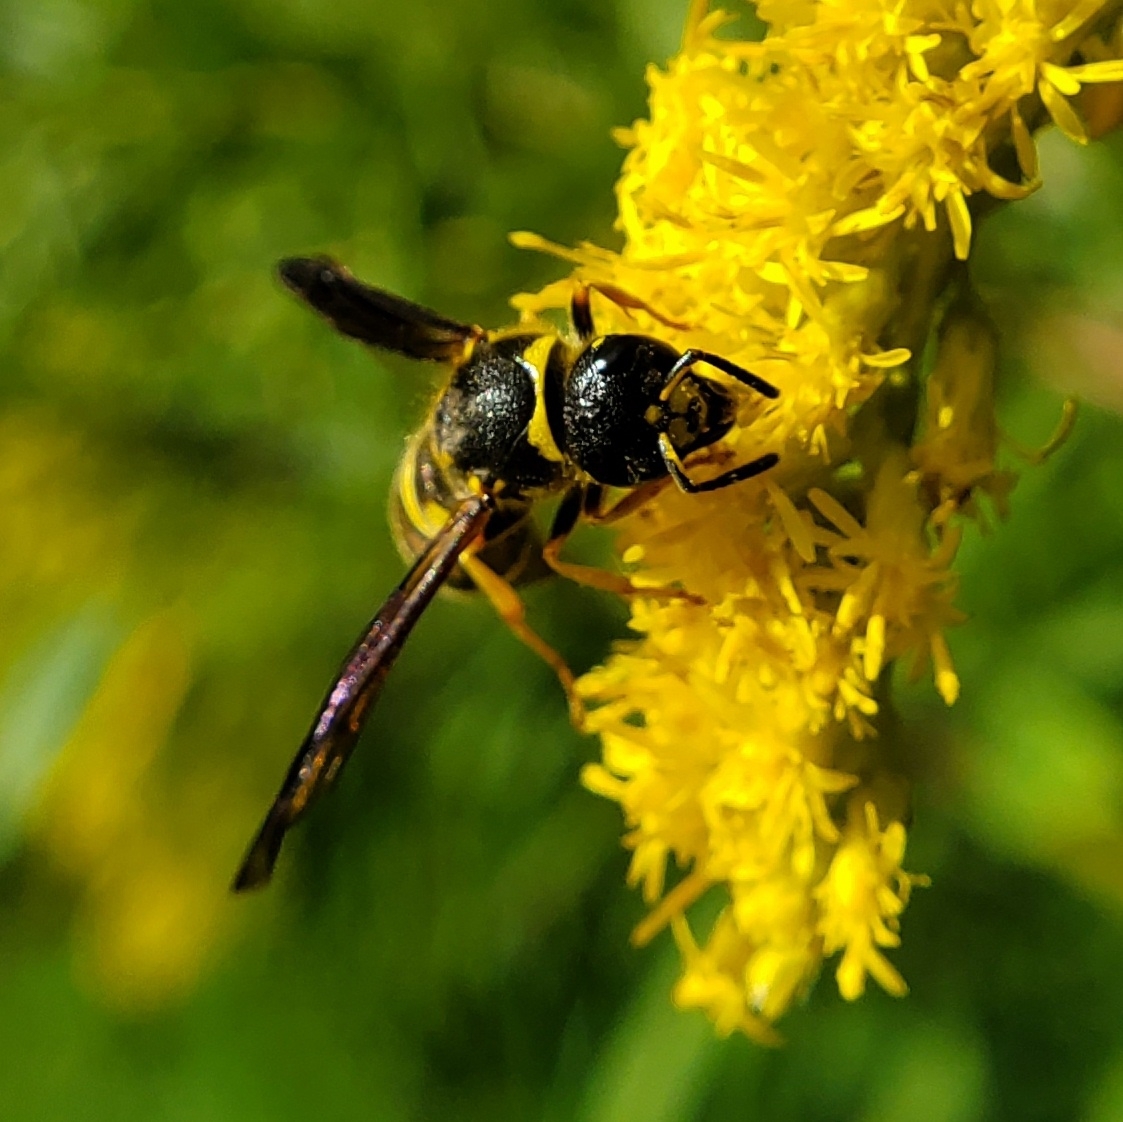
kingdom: Animalia
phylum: Arthropoda
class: Insecta
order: Hymenoptera
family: Vespidae
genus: Ancistrocerus
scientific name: Ancistrocerus campestris
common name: Smiling mason wasp
